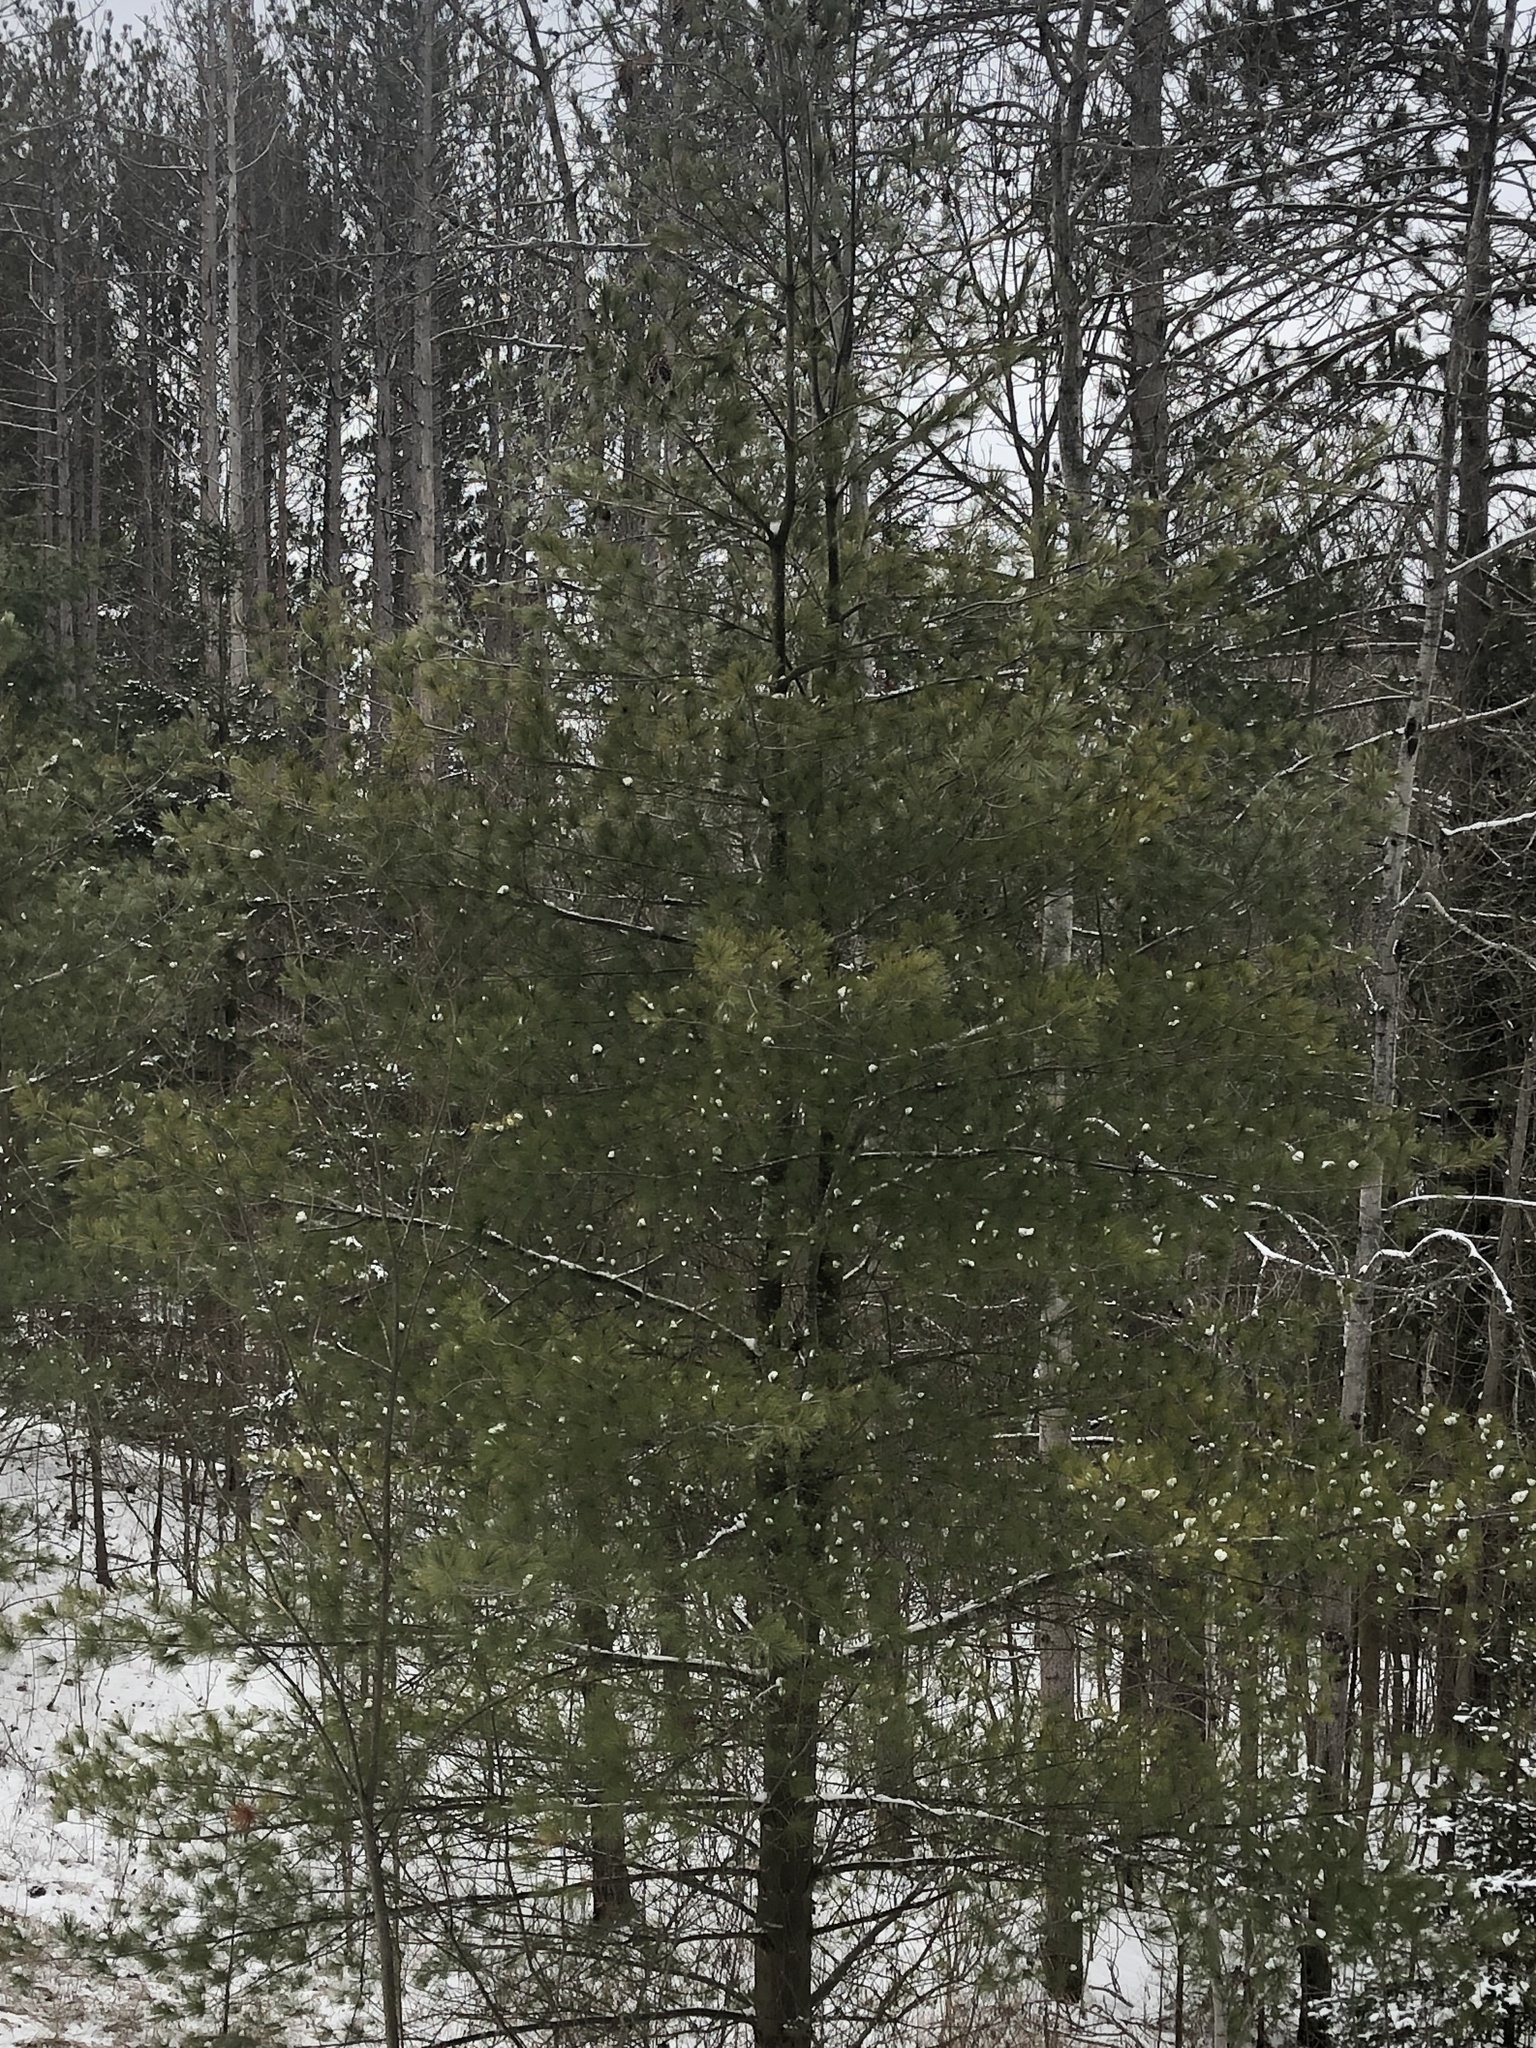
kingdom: Plantae
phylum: Tracheophyta
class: Pinopsida
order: Pinales
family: Pinaceae
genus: Pinus
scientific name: Pinus strobus
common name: Weymouth pine
